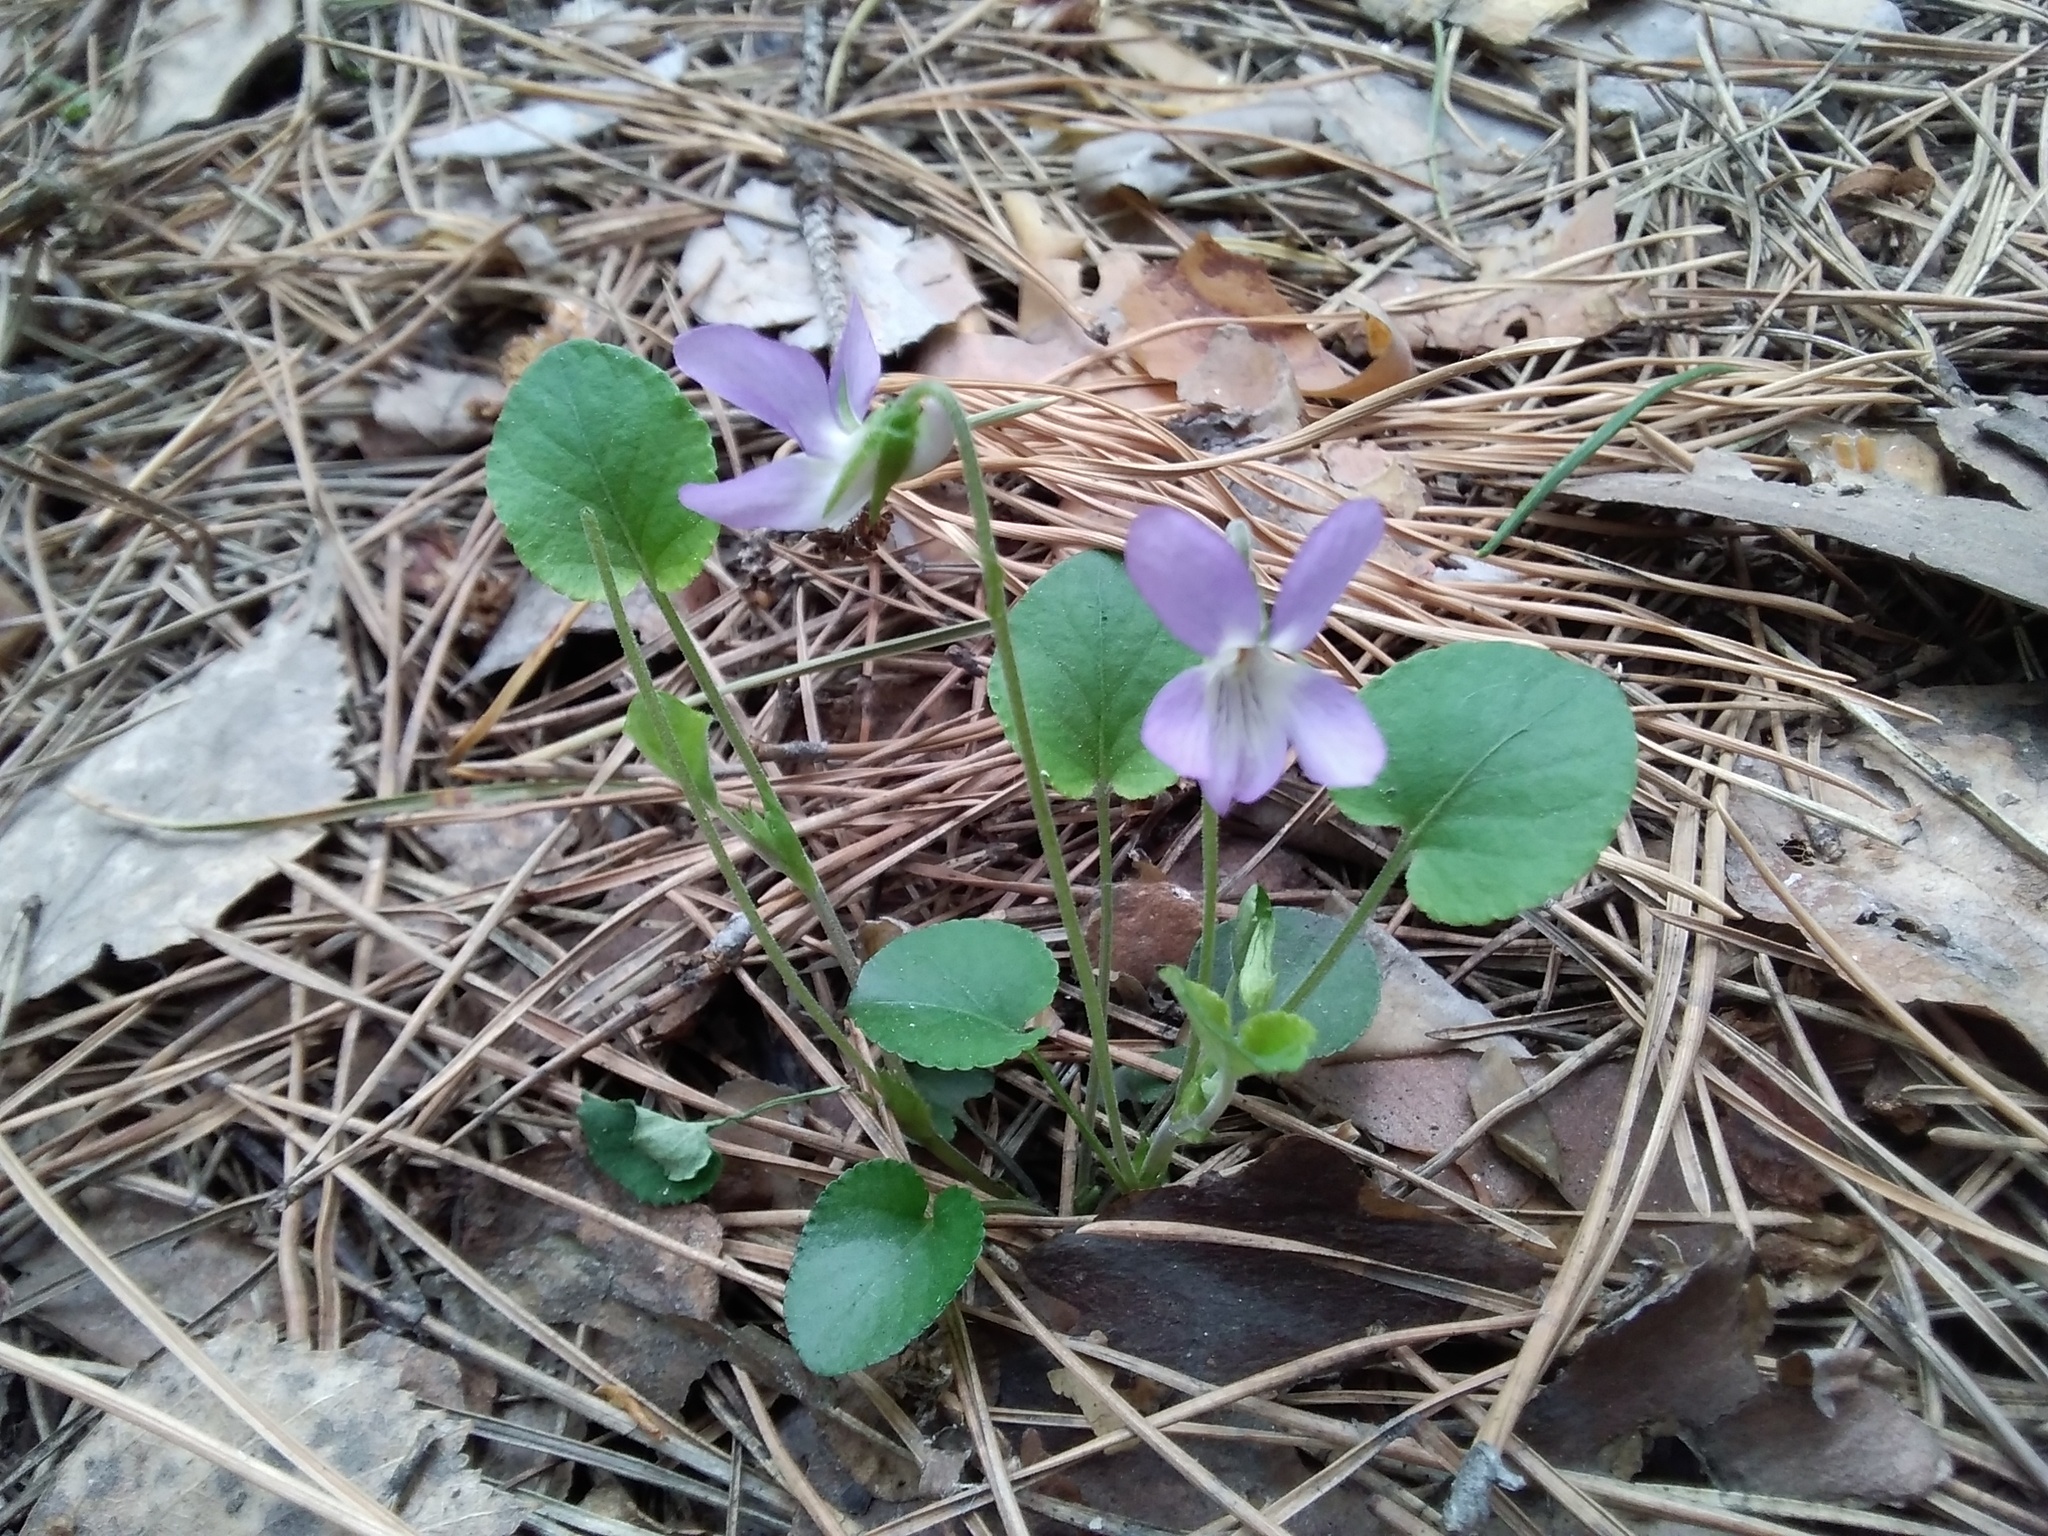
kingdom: Plantae
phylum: Tracheophyta
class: Magnoliopsida
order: Malpighiales
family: Violaceae
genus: Viola
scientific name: Viola rupestris
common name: Teesdale violet
